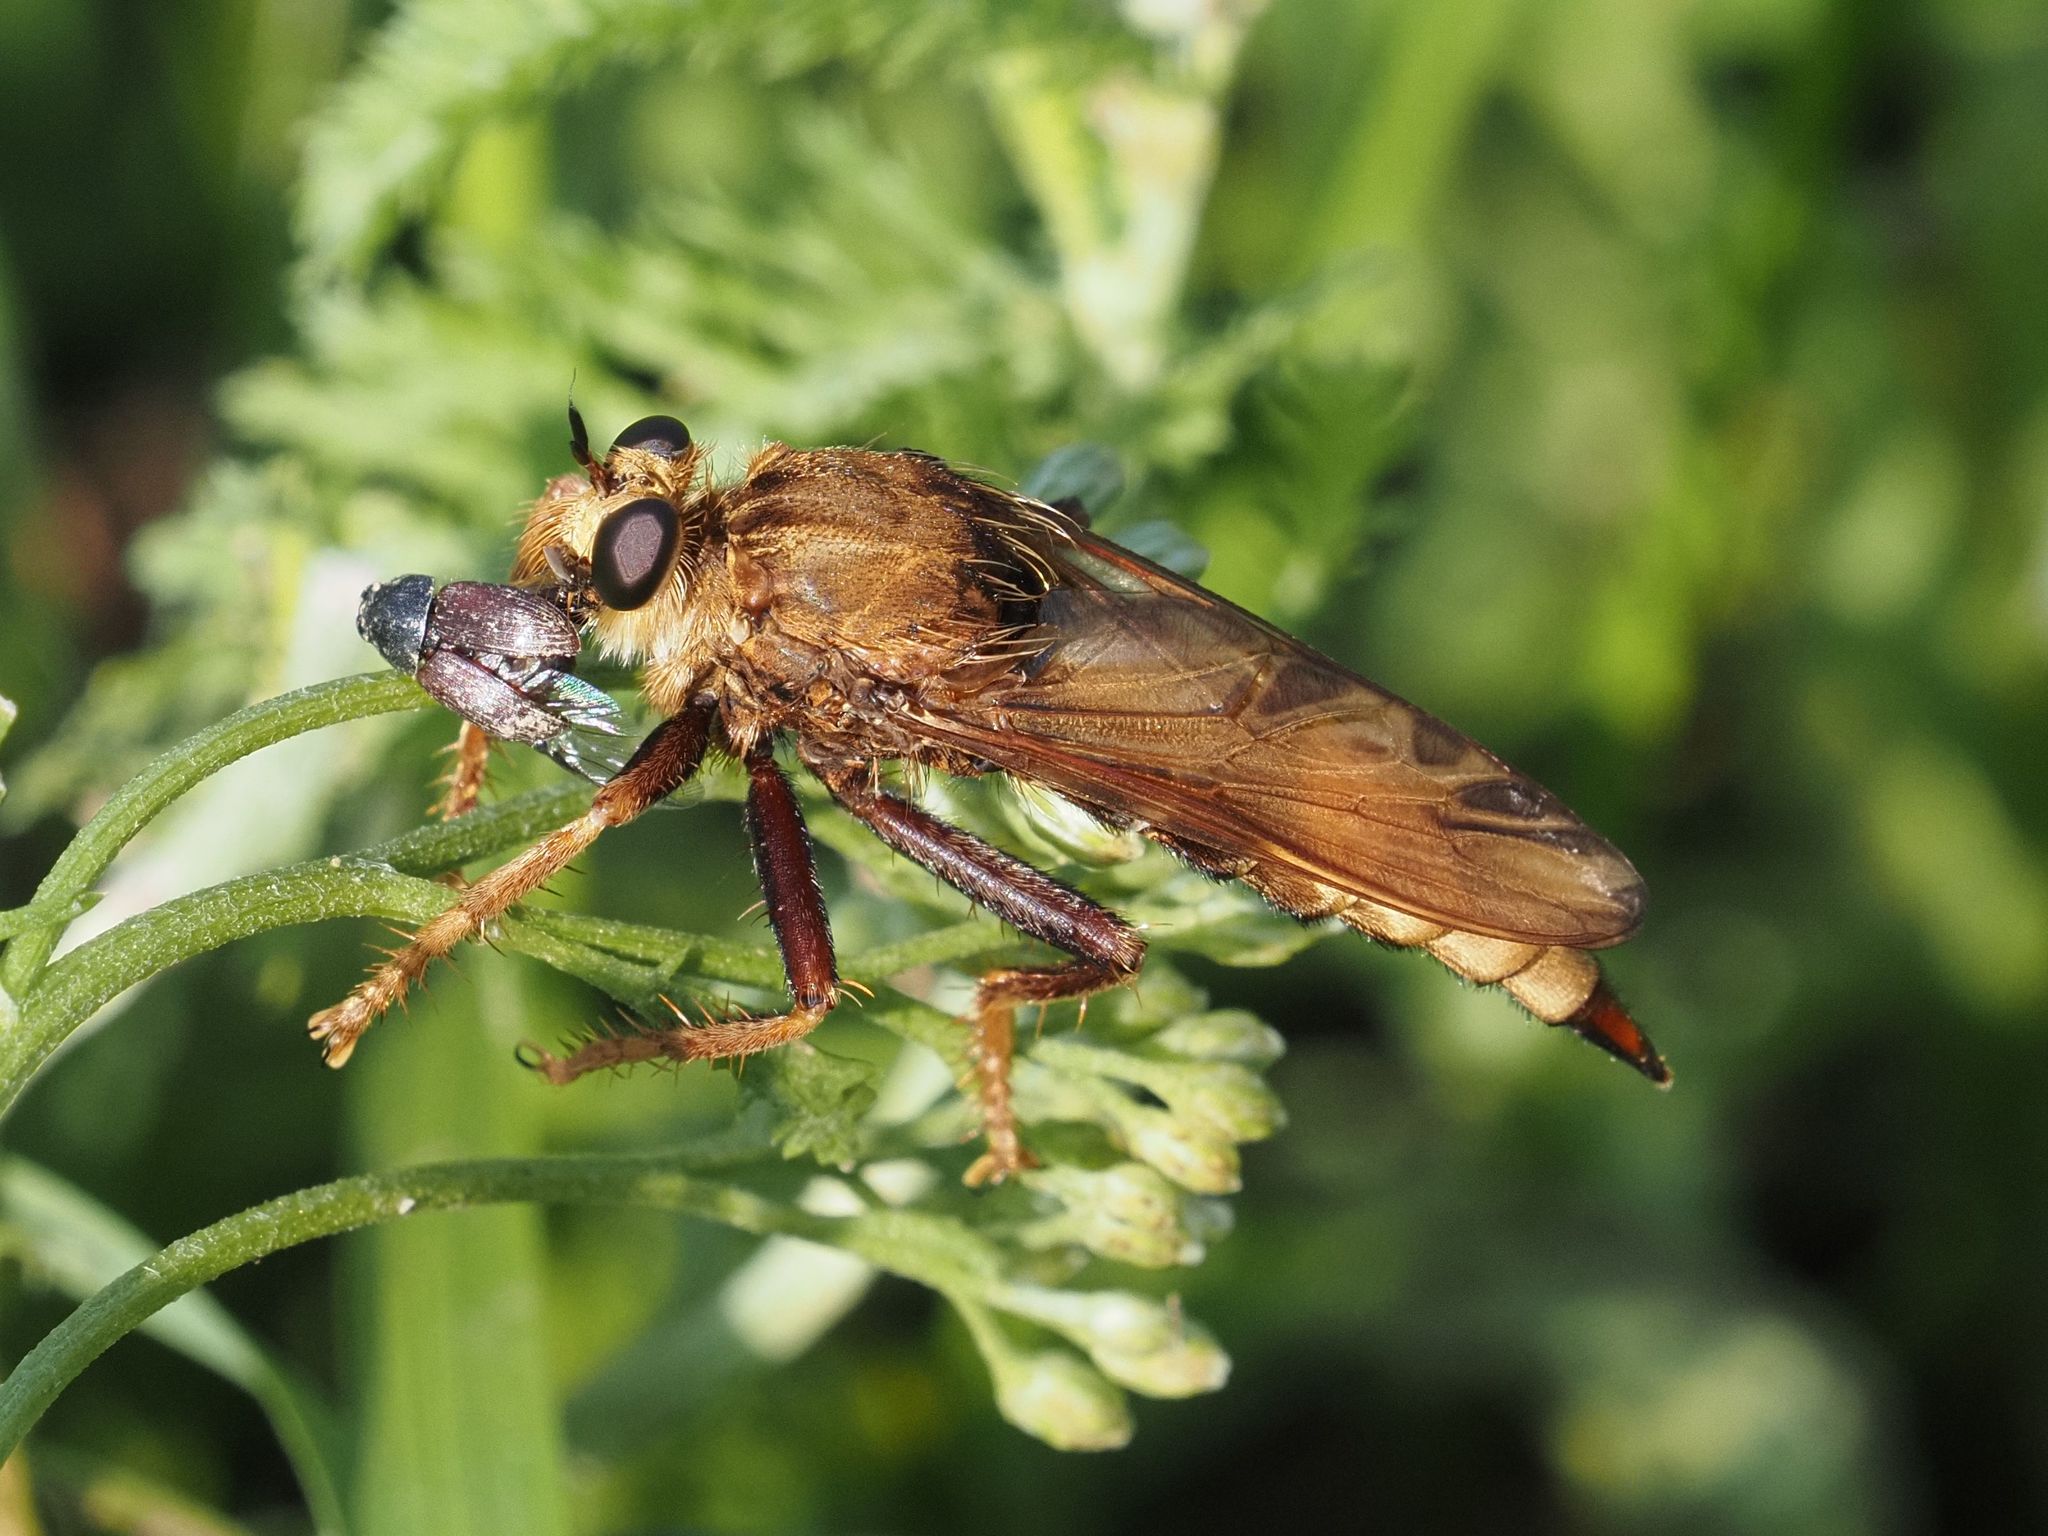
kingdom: Animalia
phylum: Arthropoda
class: Insecta
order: Diptera
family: Asilidae
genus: Asilus
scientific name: Asilus crabroniformis
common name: Hornet robberfly
